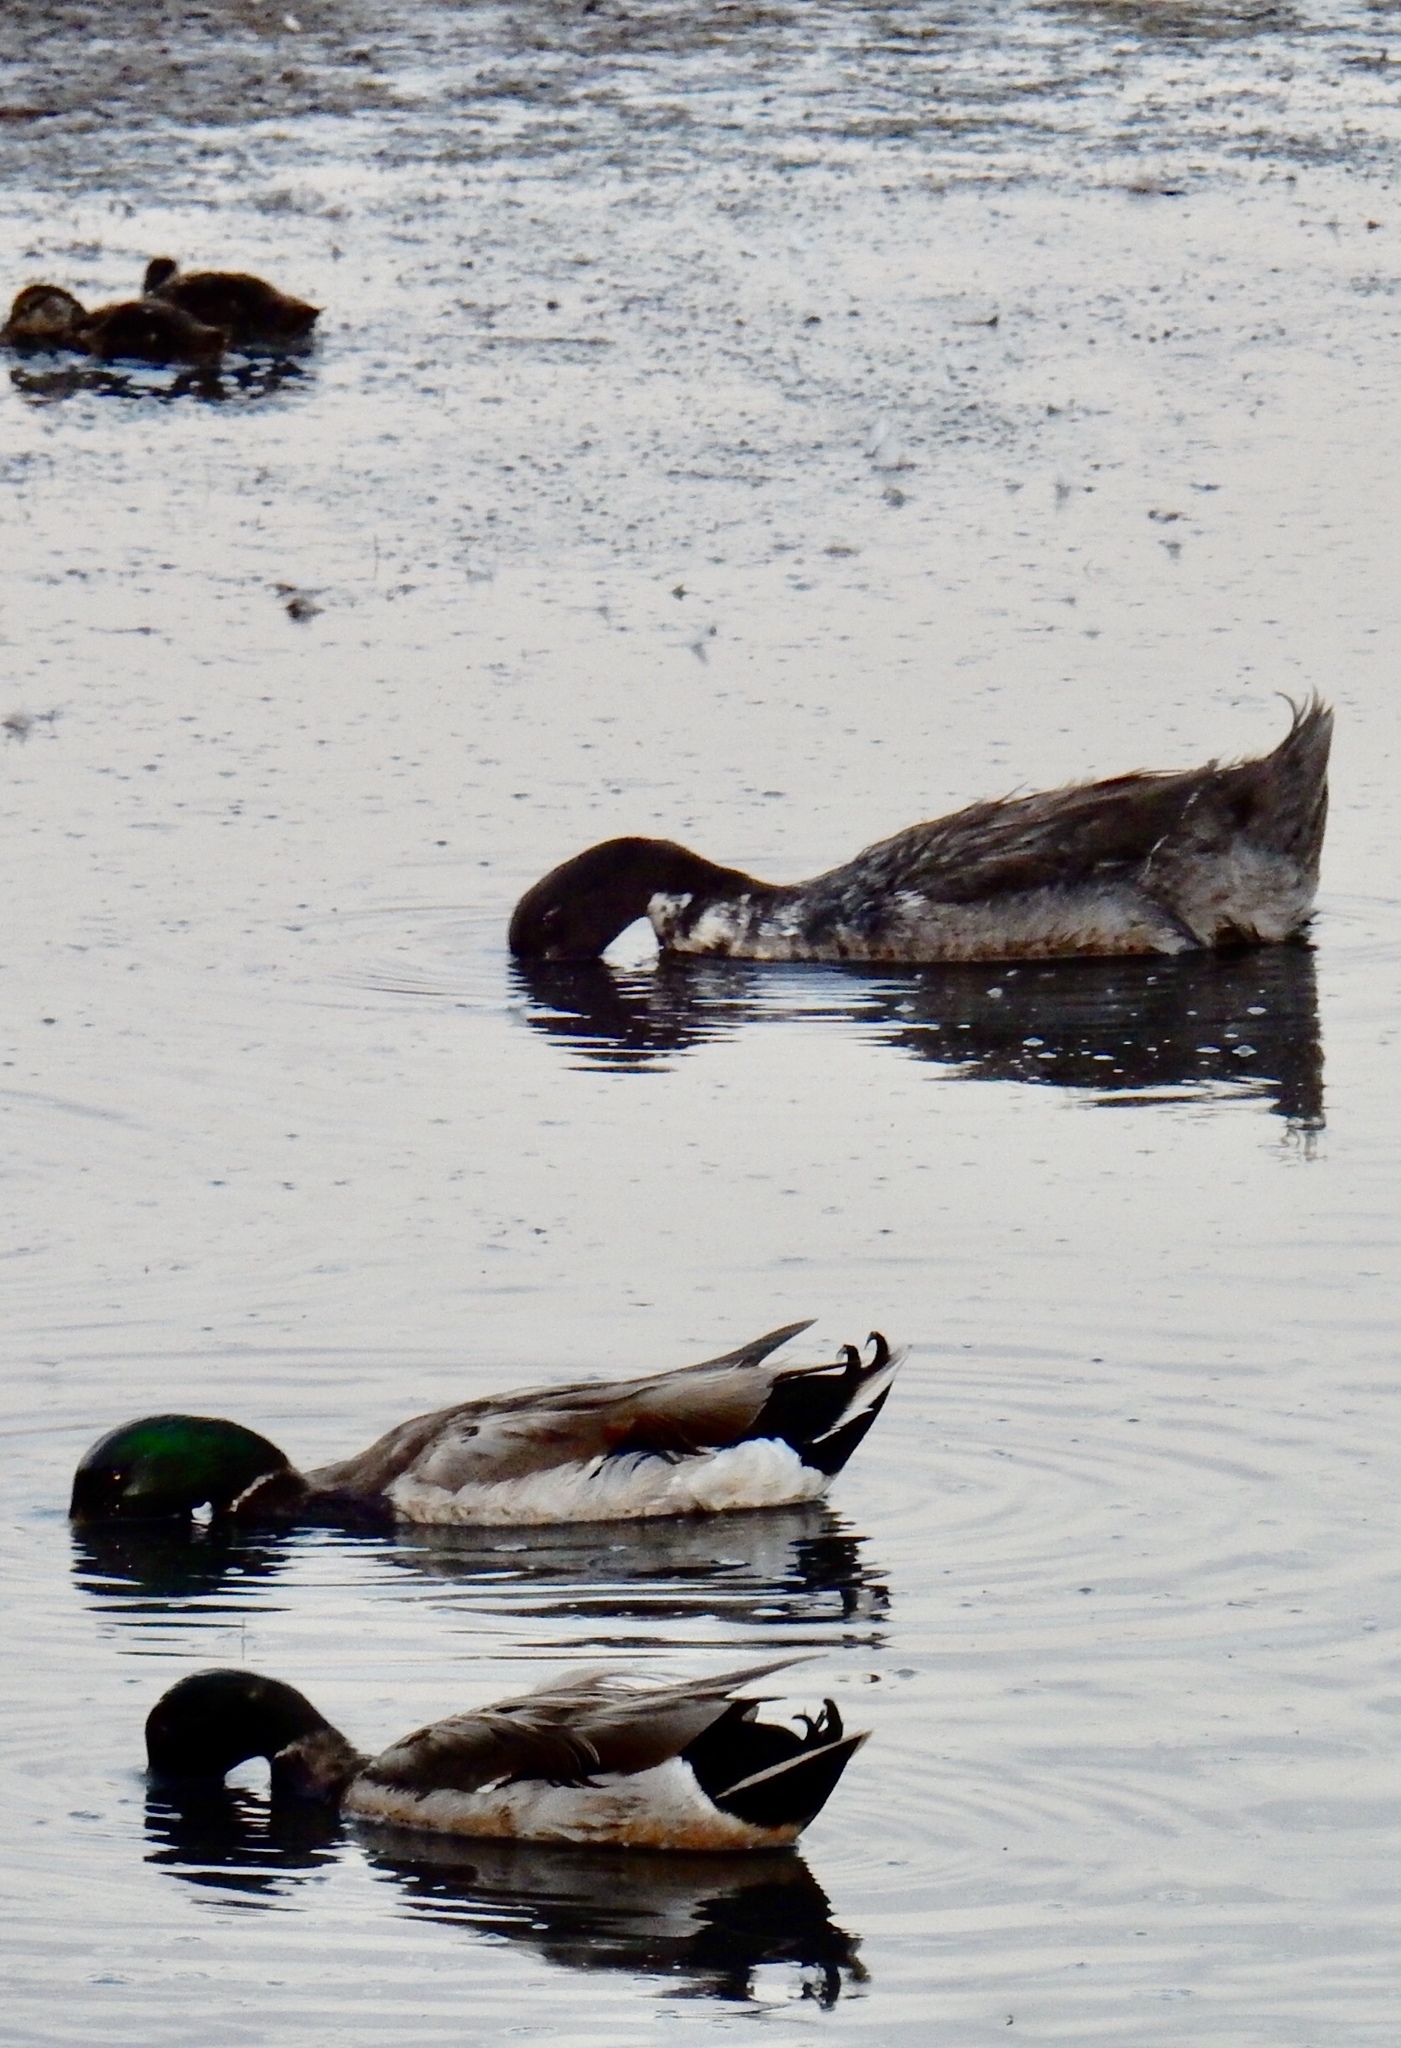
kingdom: Animalia
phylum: Chordata
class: Aves
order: Anseriformes
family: Anatidae
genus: Anas
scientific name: Anas platyrhynchos
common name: Mallard
